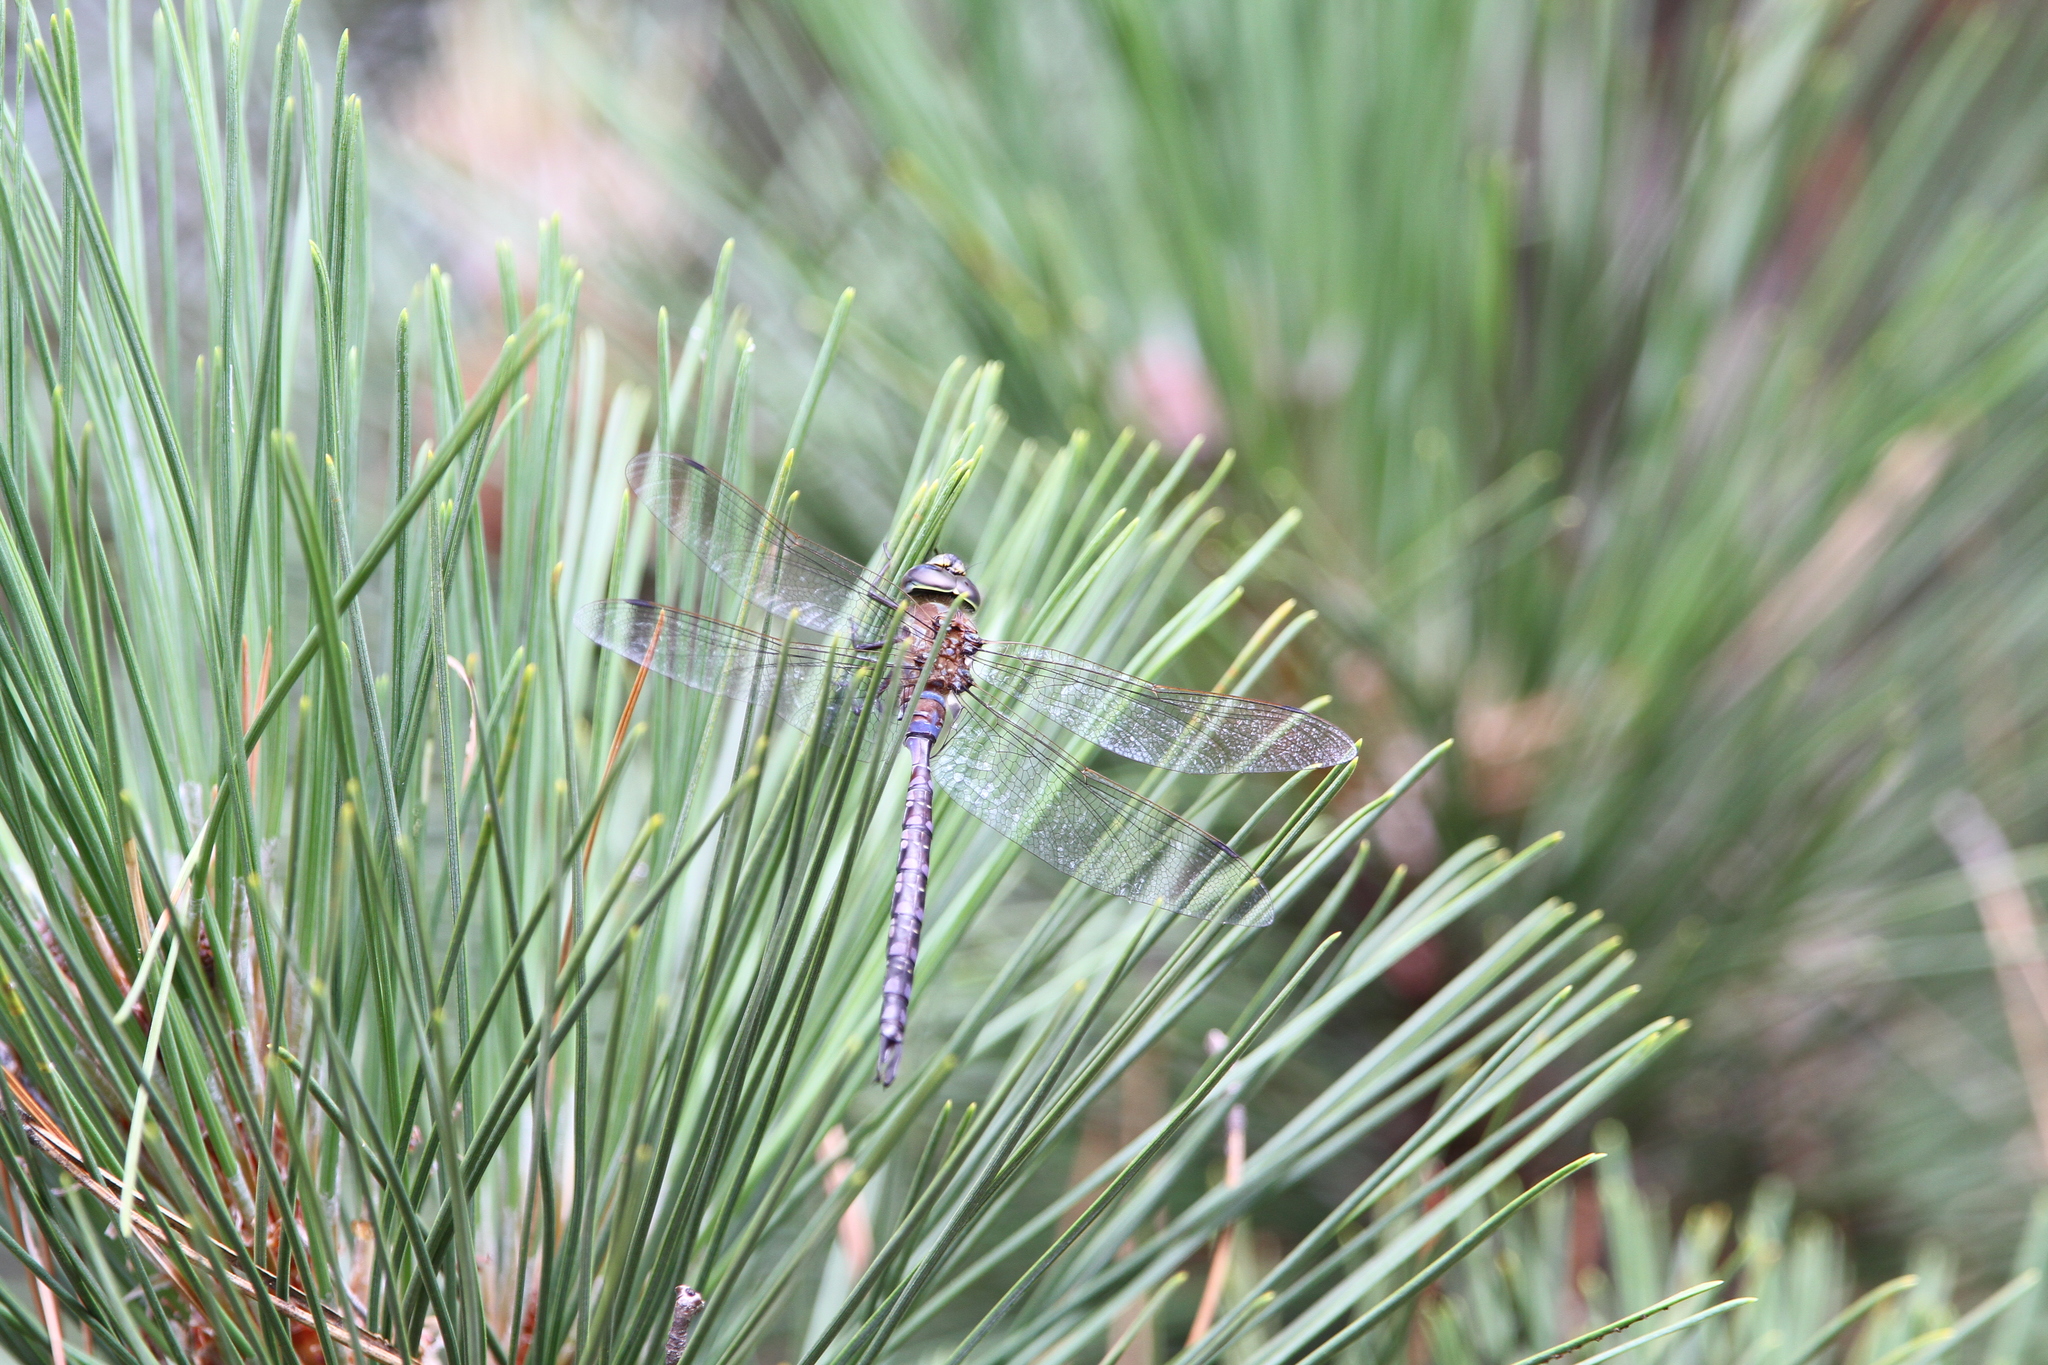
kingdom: Animalia
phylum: Arthropoda
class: Insecta
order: Odonata
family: Aeshnidae
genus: Aeshna
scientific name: Aeshna constricta
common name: Lance-tipped darner
